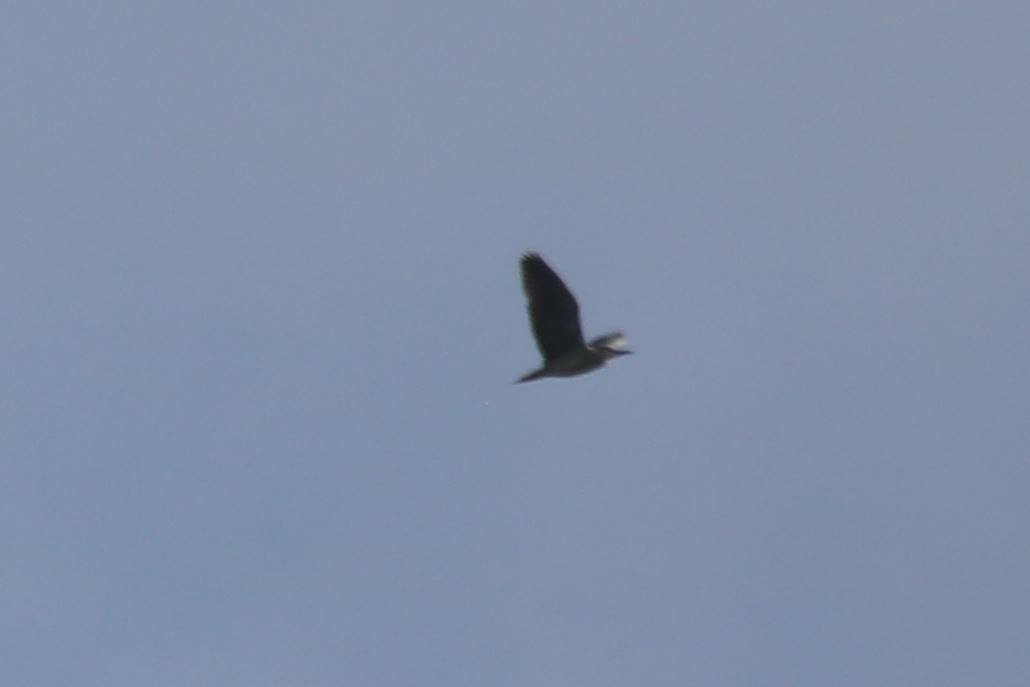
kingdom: Animalia
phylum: Chordata
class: Aves
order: Pelecaniformes
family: Ardeidae
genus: Nycticorax
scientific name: Nycticorax nycticorax
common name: Black-crowned night heron
